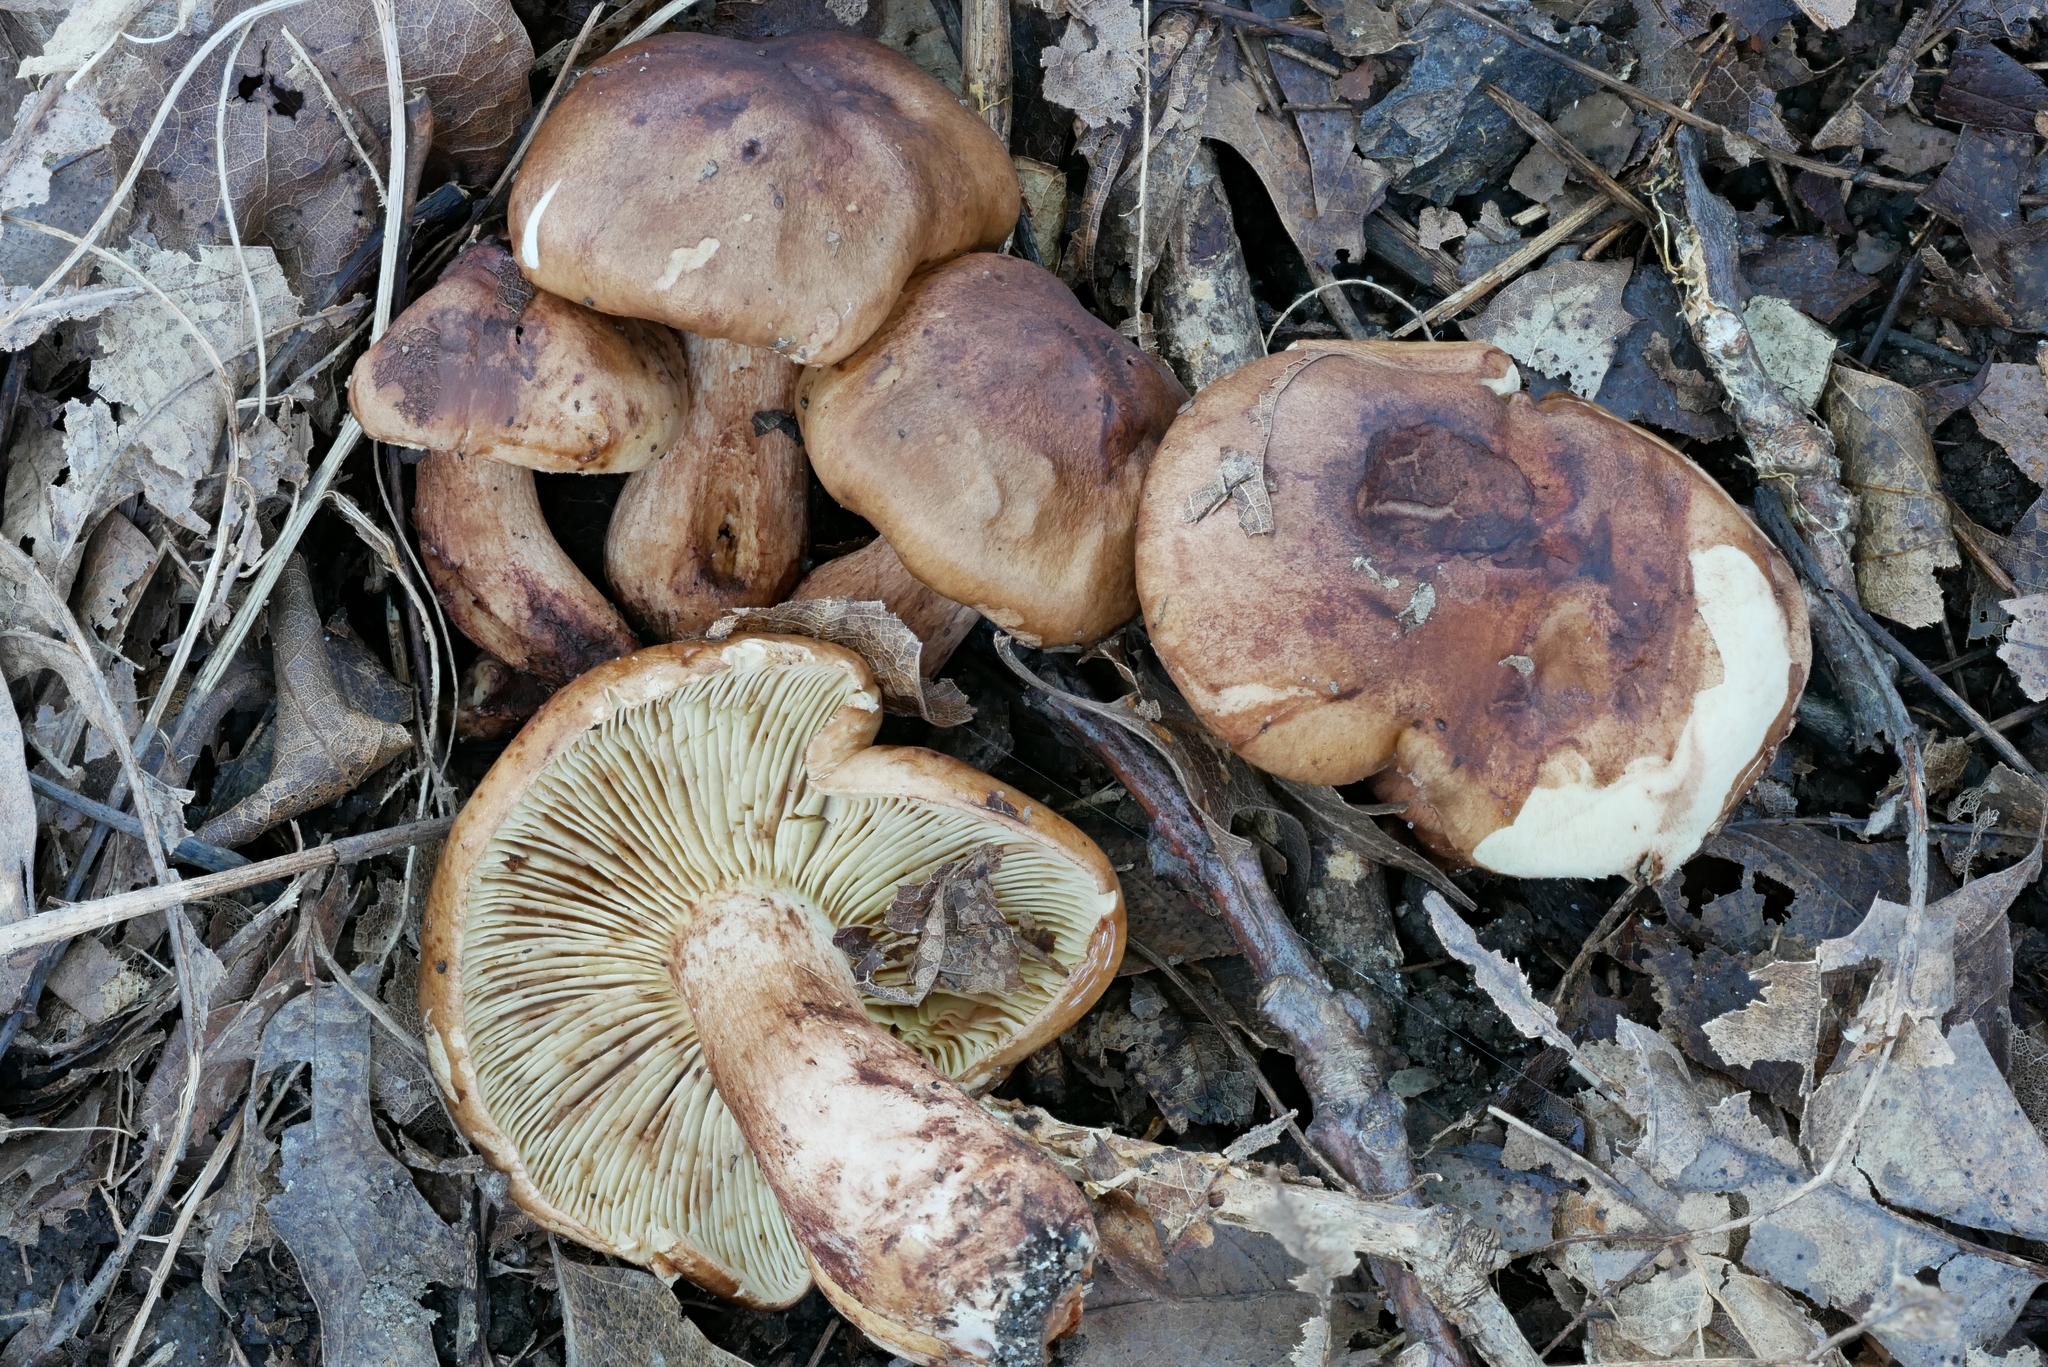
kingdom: Fungi
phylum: Basidiomycota
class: Agaricomycetes
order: Agaricales
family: Tricholomataceae
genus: Tricholoma
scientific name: Tricholoma brunneoluteum
